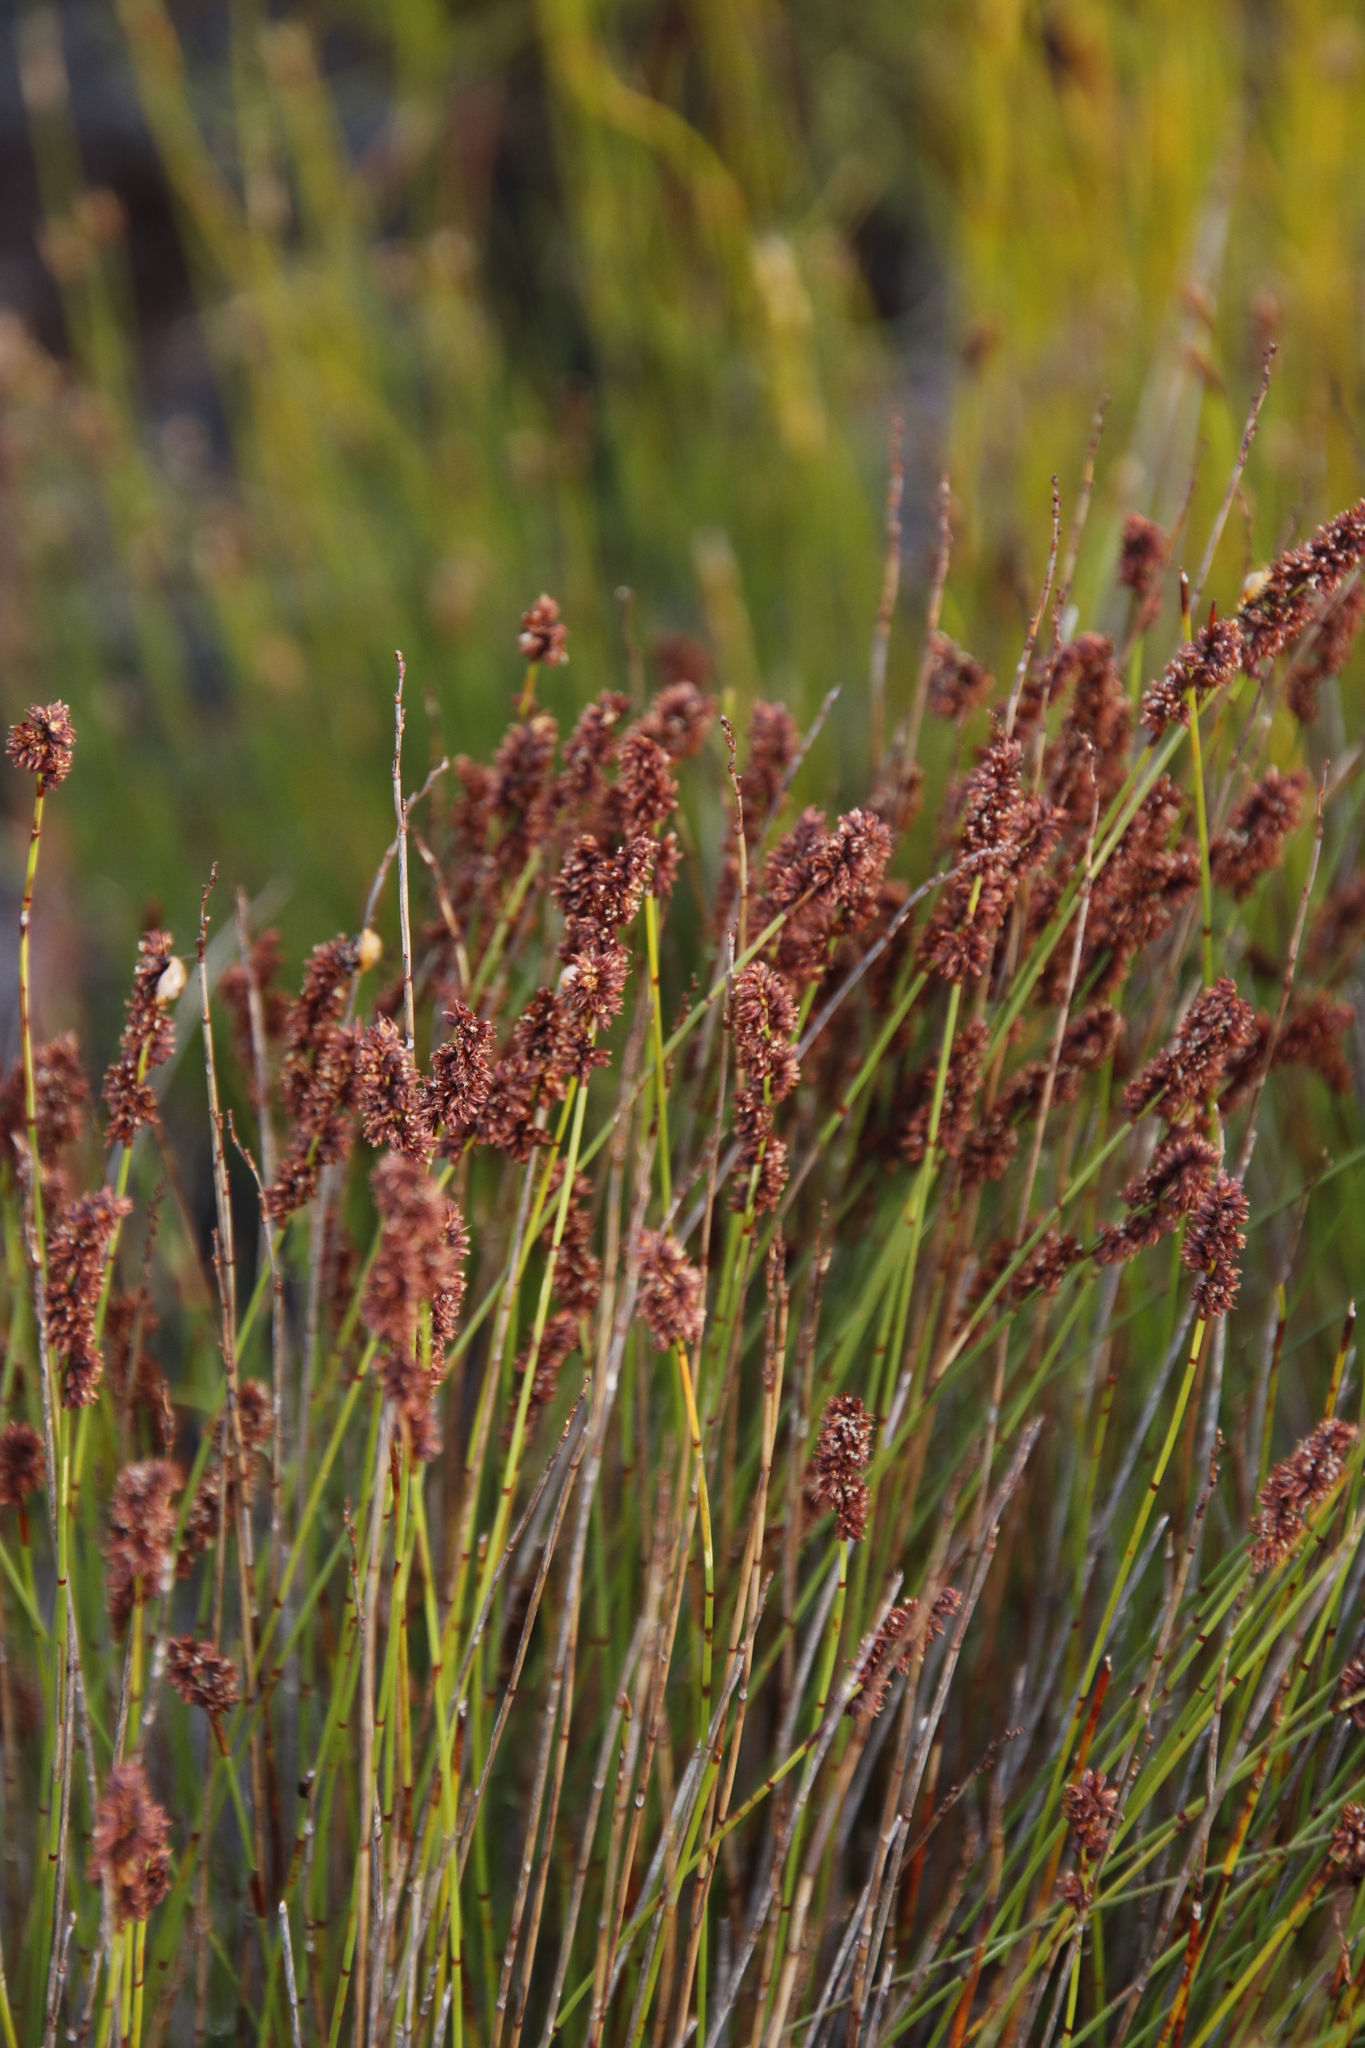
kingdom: Plantae
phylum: Tracheophyta
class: Liliopsida
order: Poales
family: Restionaceae
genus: Elegia
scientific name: Elegia nuda
